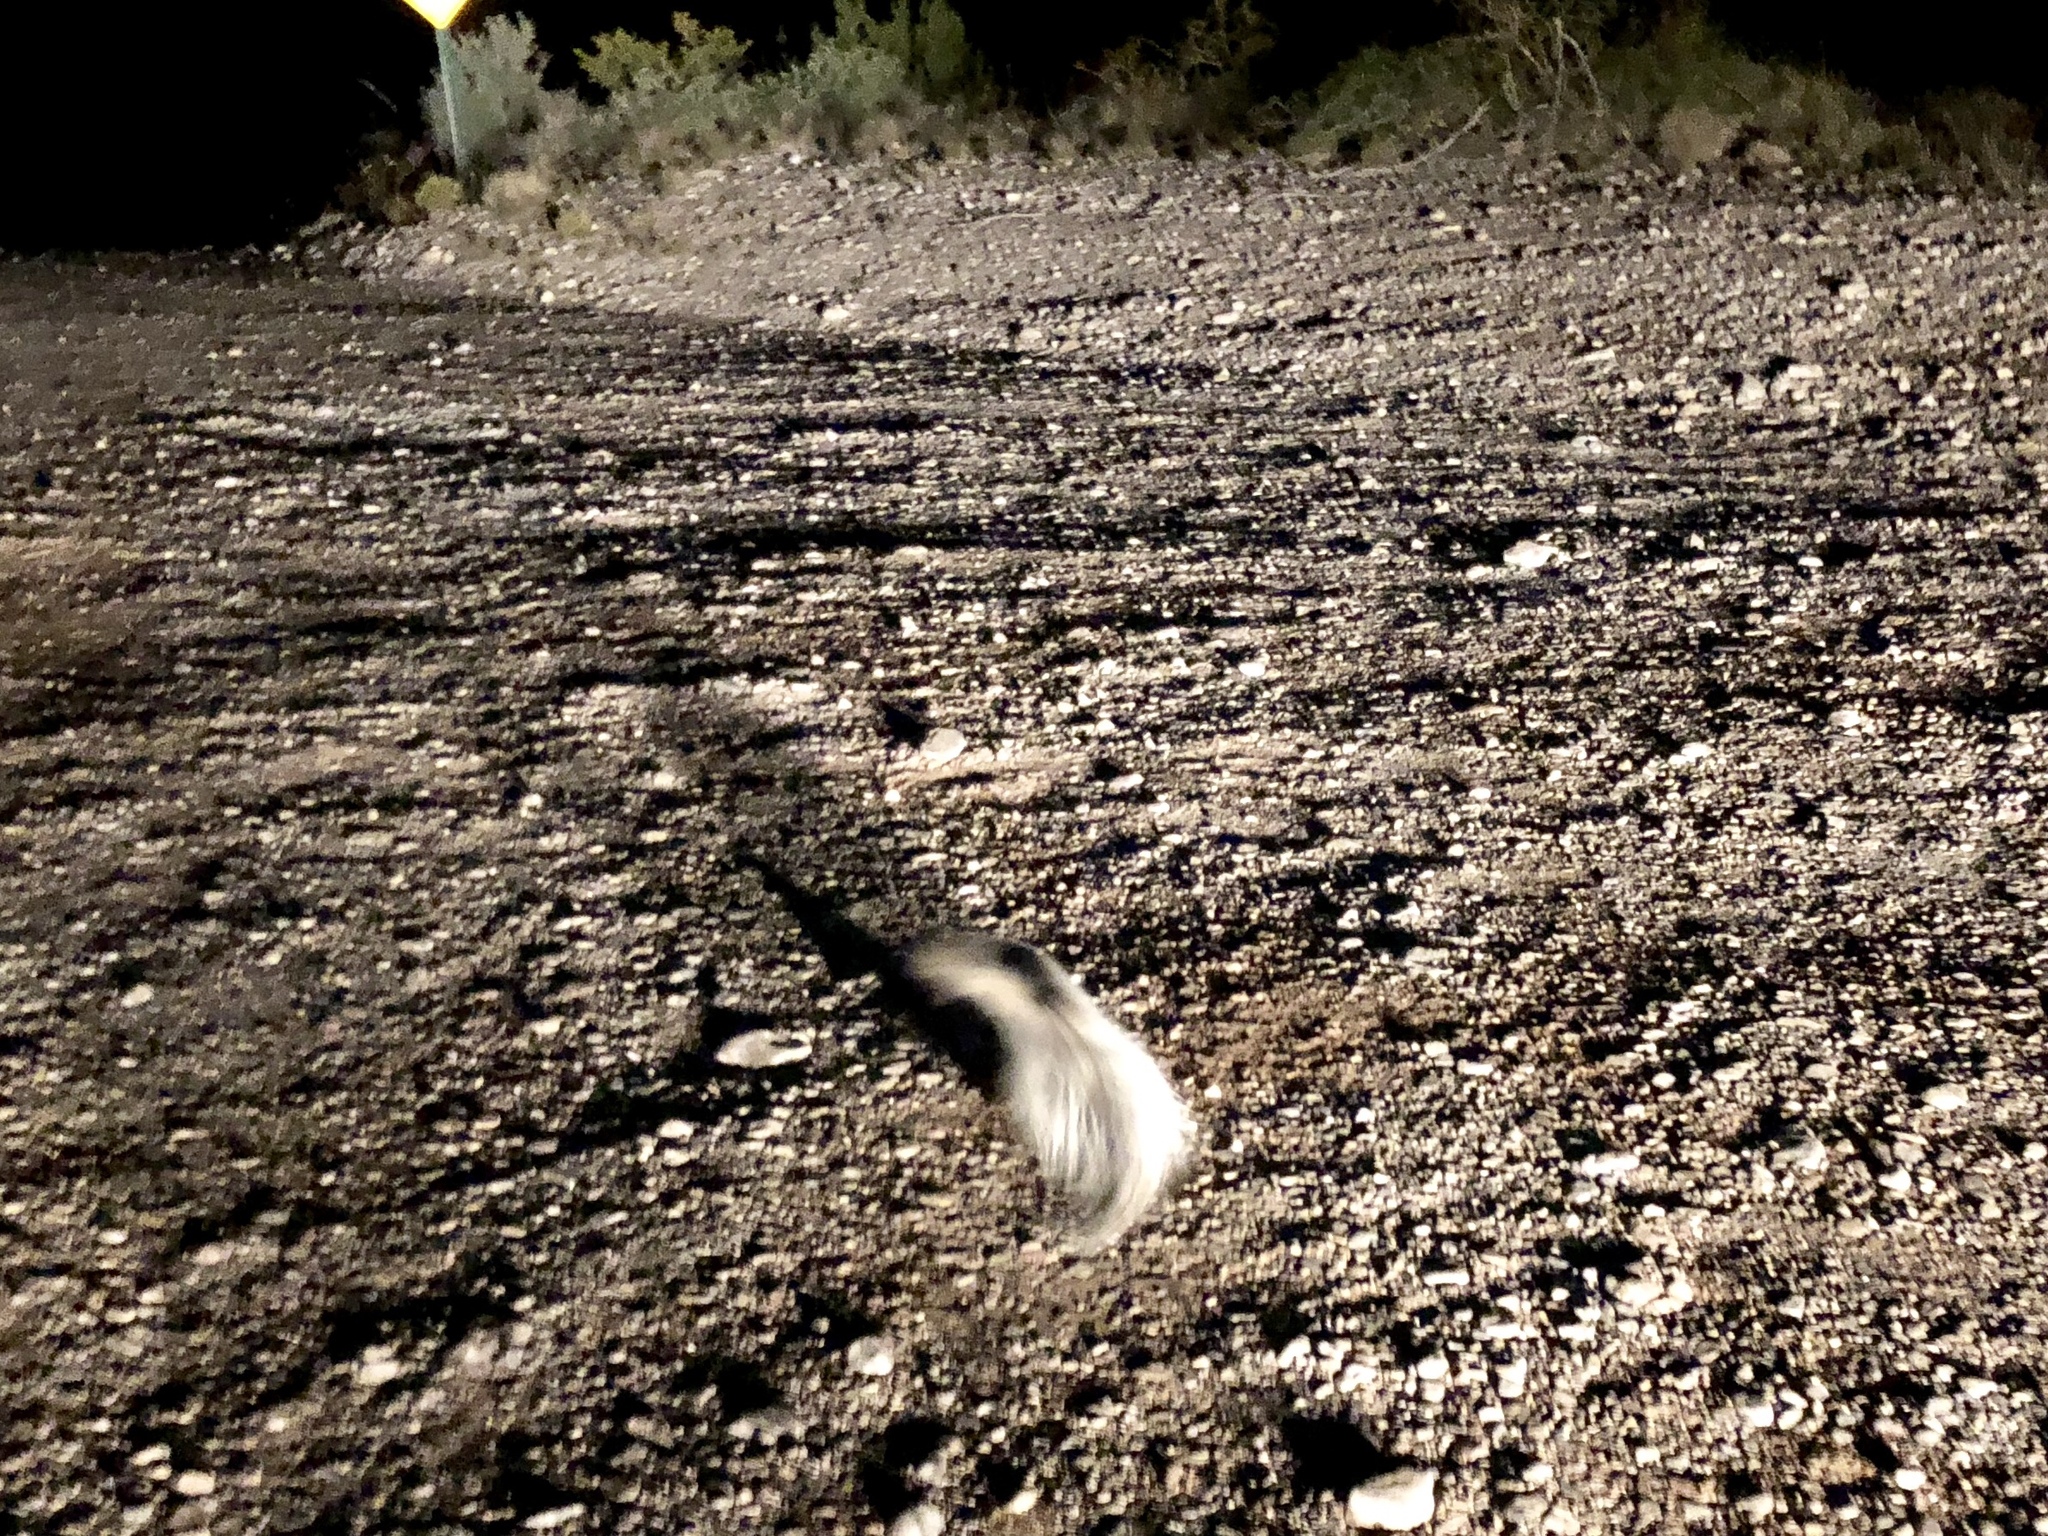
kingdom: Animalia
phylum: Chordata
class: Mammalia
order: Carnivora
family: Mephitidae
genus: Mephitis
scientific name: Mephitis mephitis
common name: Striped skunk
